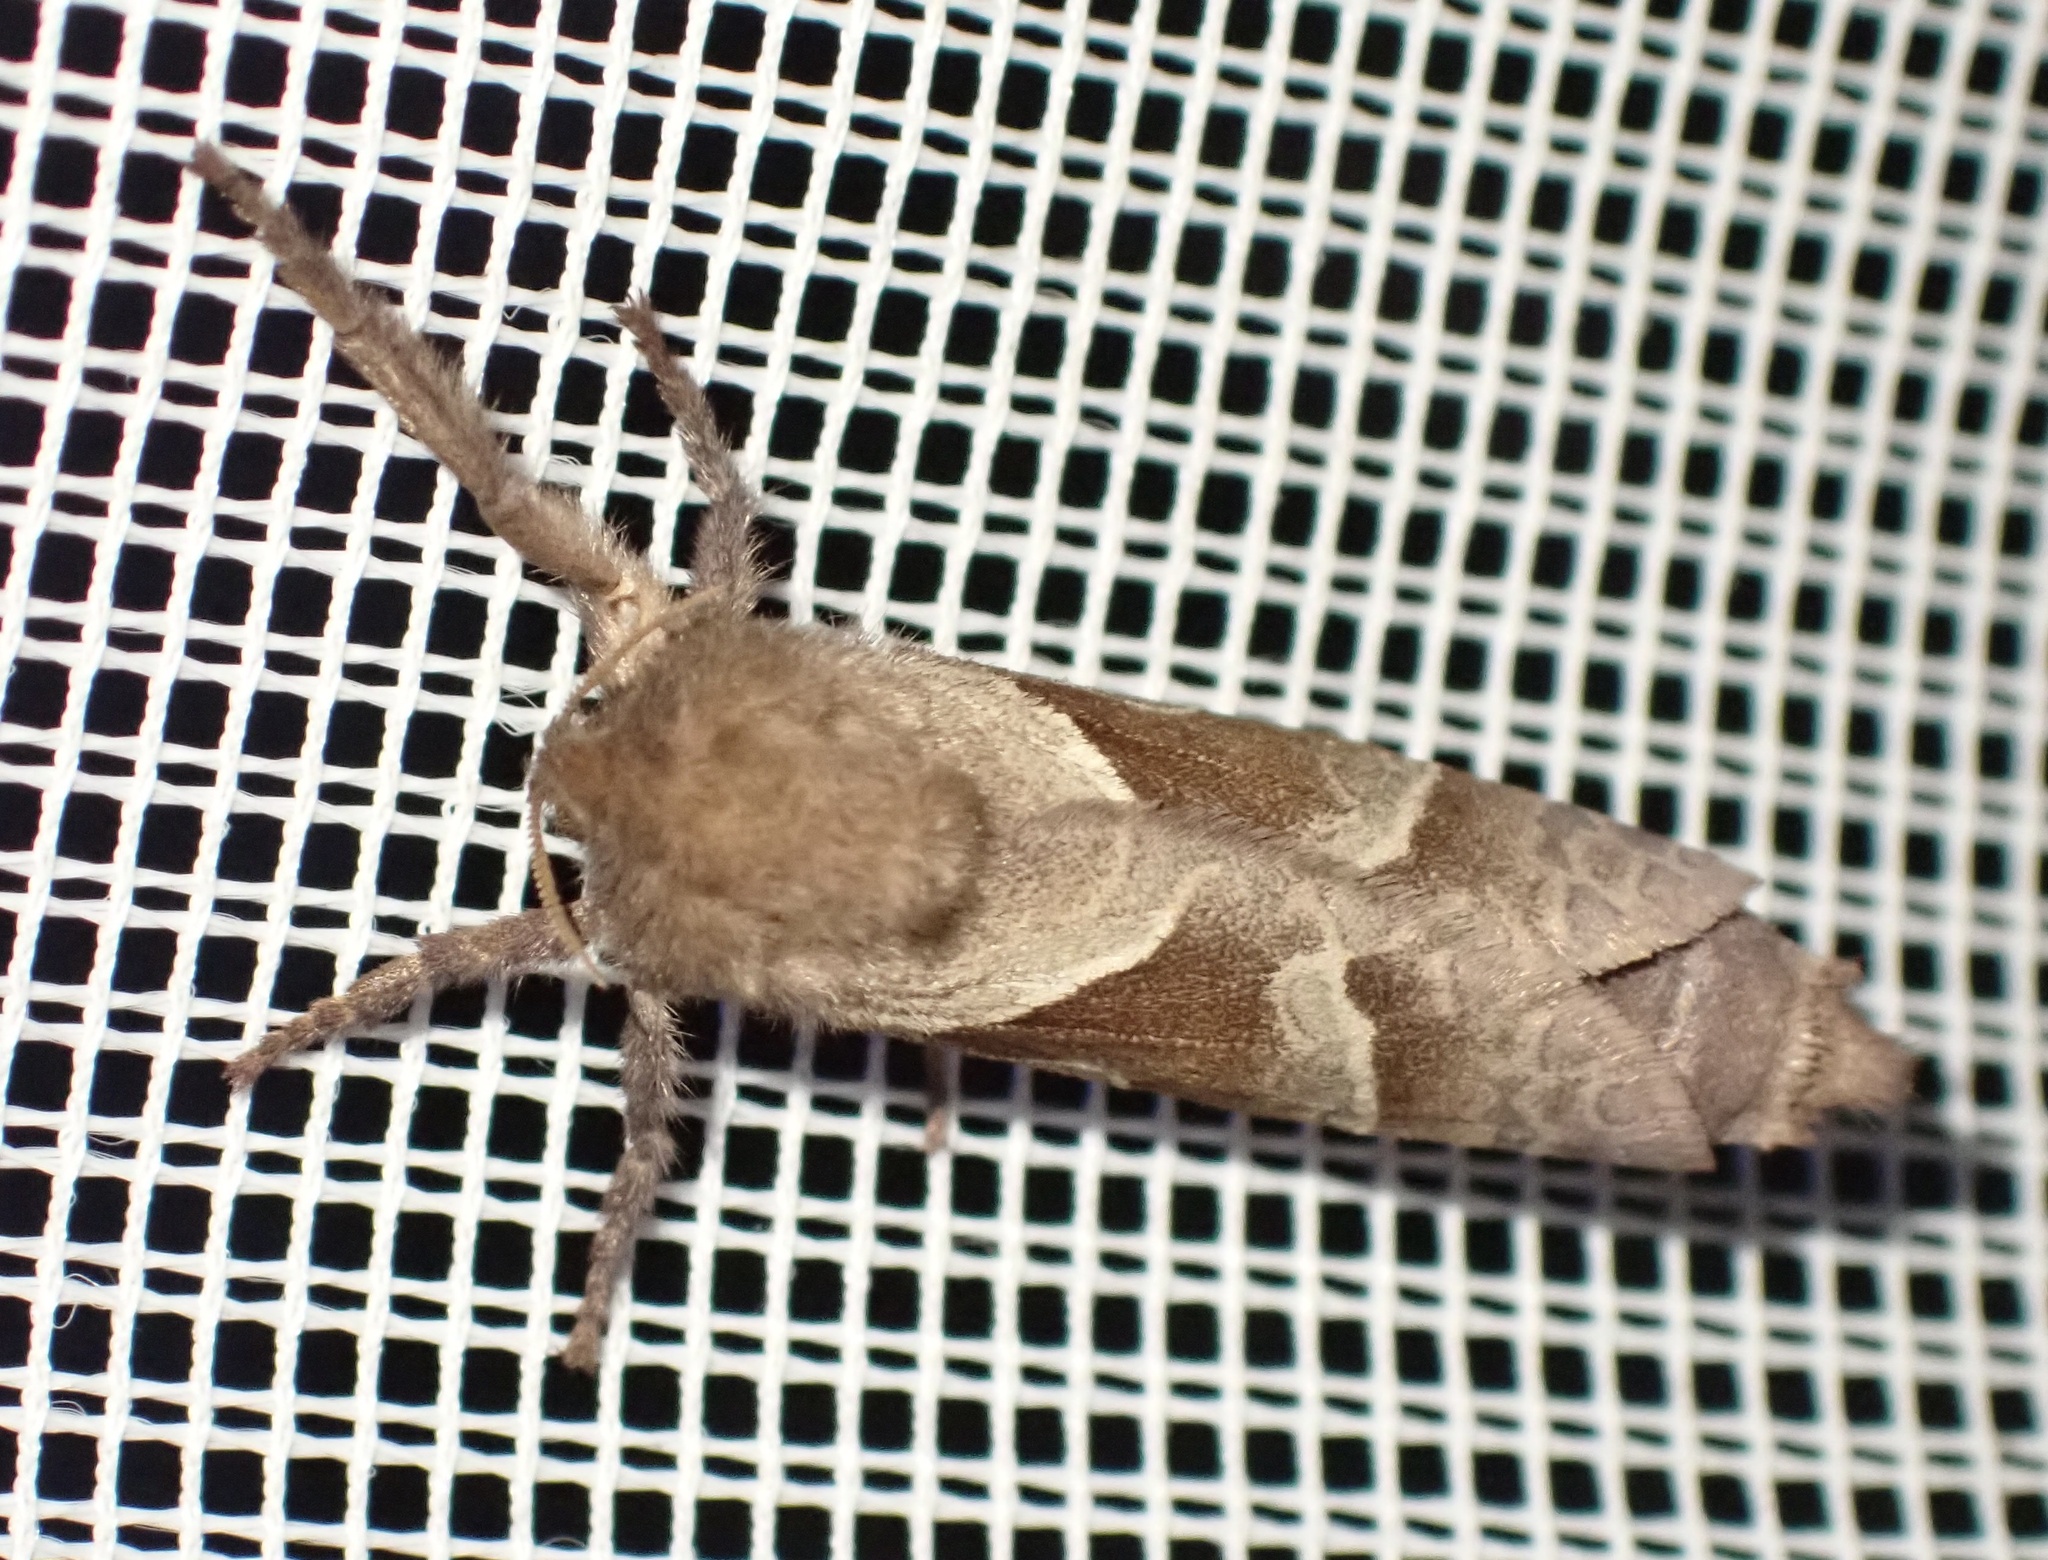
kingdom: Animalia
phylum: Arthropoda
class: Insecta
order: Lepidoptera
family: Hepialidae
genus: Triodia
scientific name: Triodia sylvina
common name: Orange swift
